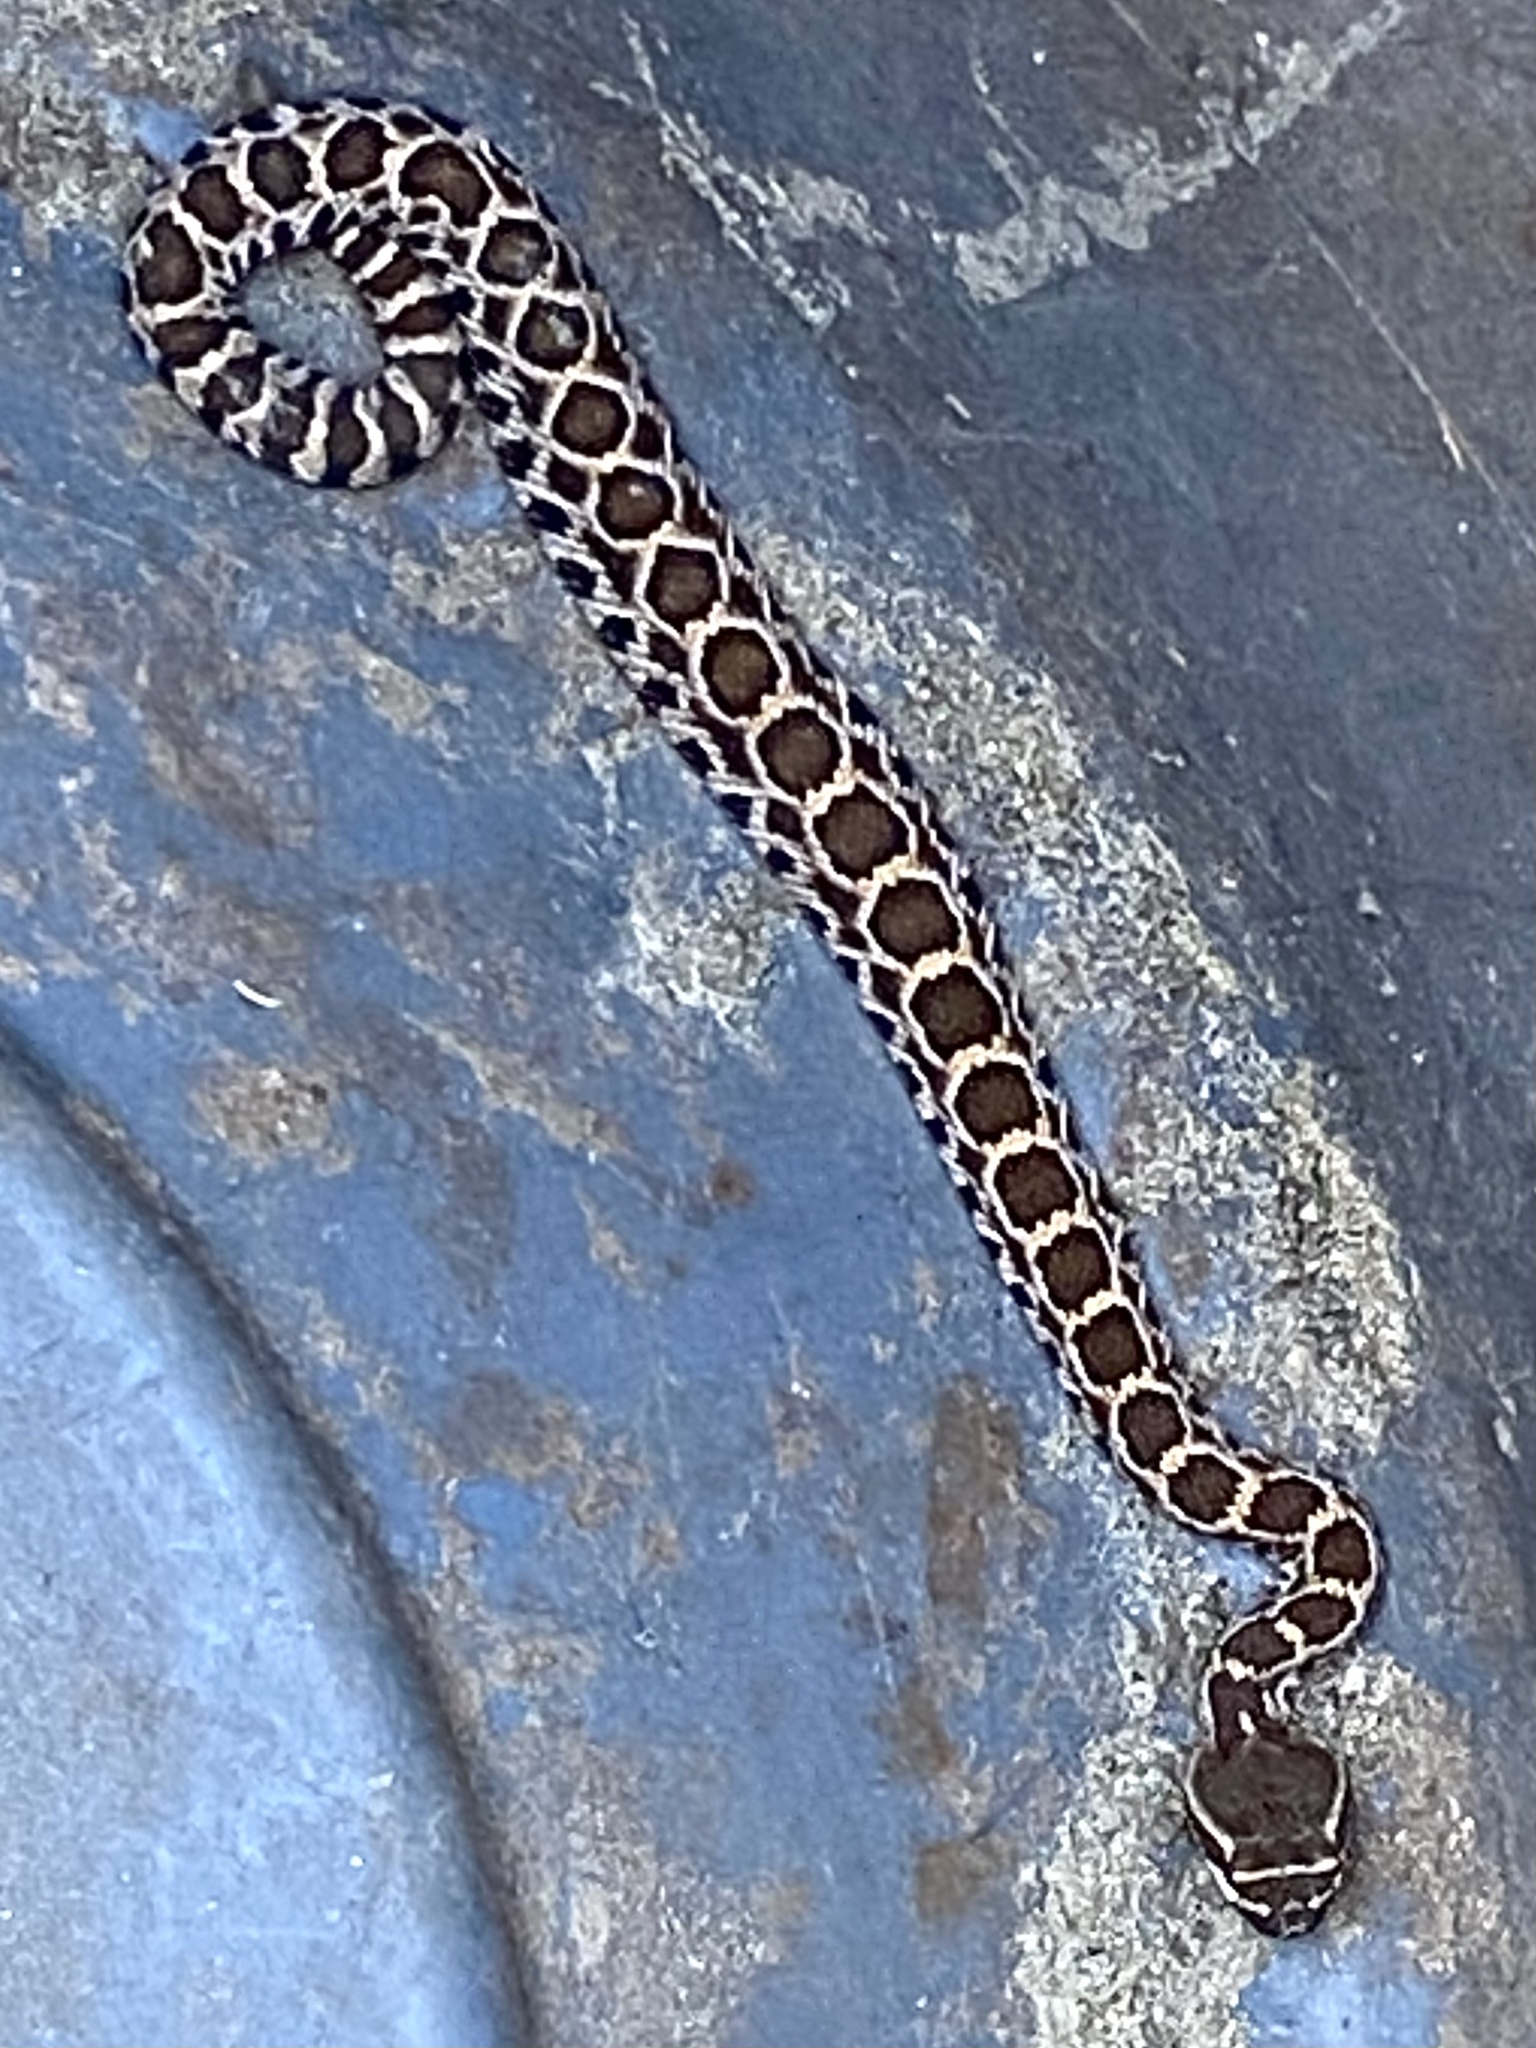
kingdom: Animalia
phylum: Chordata
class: Squamata
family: Viperidae
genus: Crotalus
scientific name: Crotalus oreganus
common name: Abyssus
